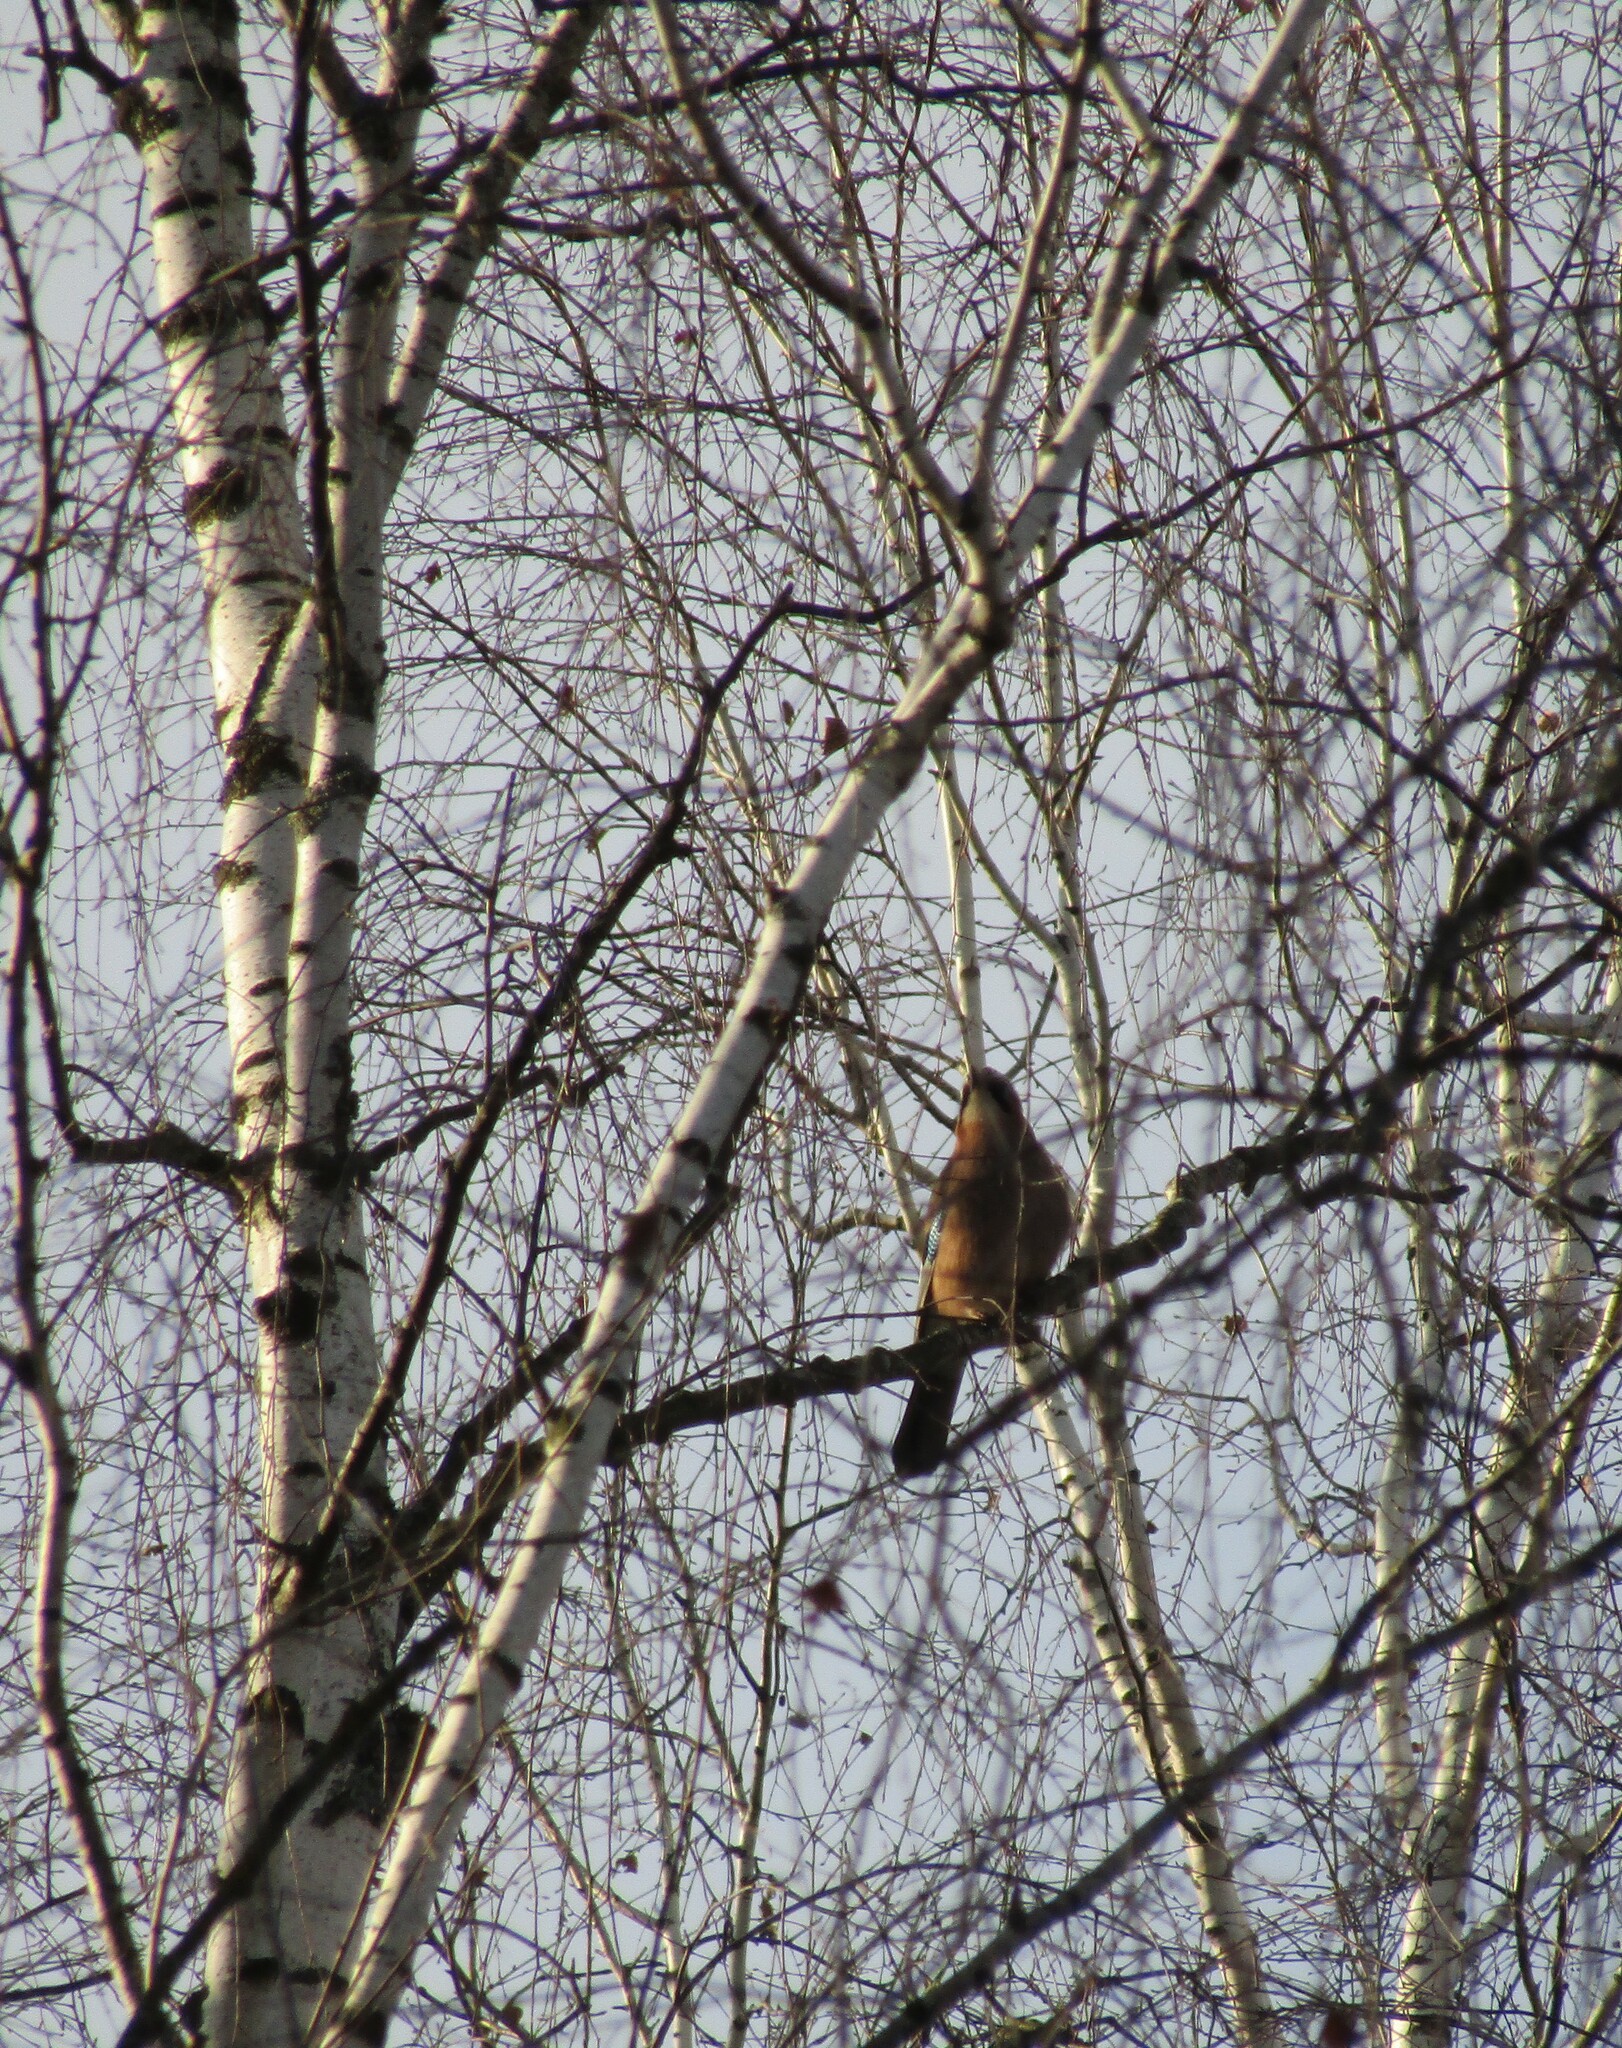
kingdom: Animalia
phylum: Chordata
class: Aves
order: Passeriformes
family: Corvidae
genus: Garrulus
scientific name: Garrulus glandarius
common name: Eurasian jay
